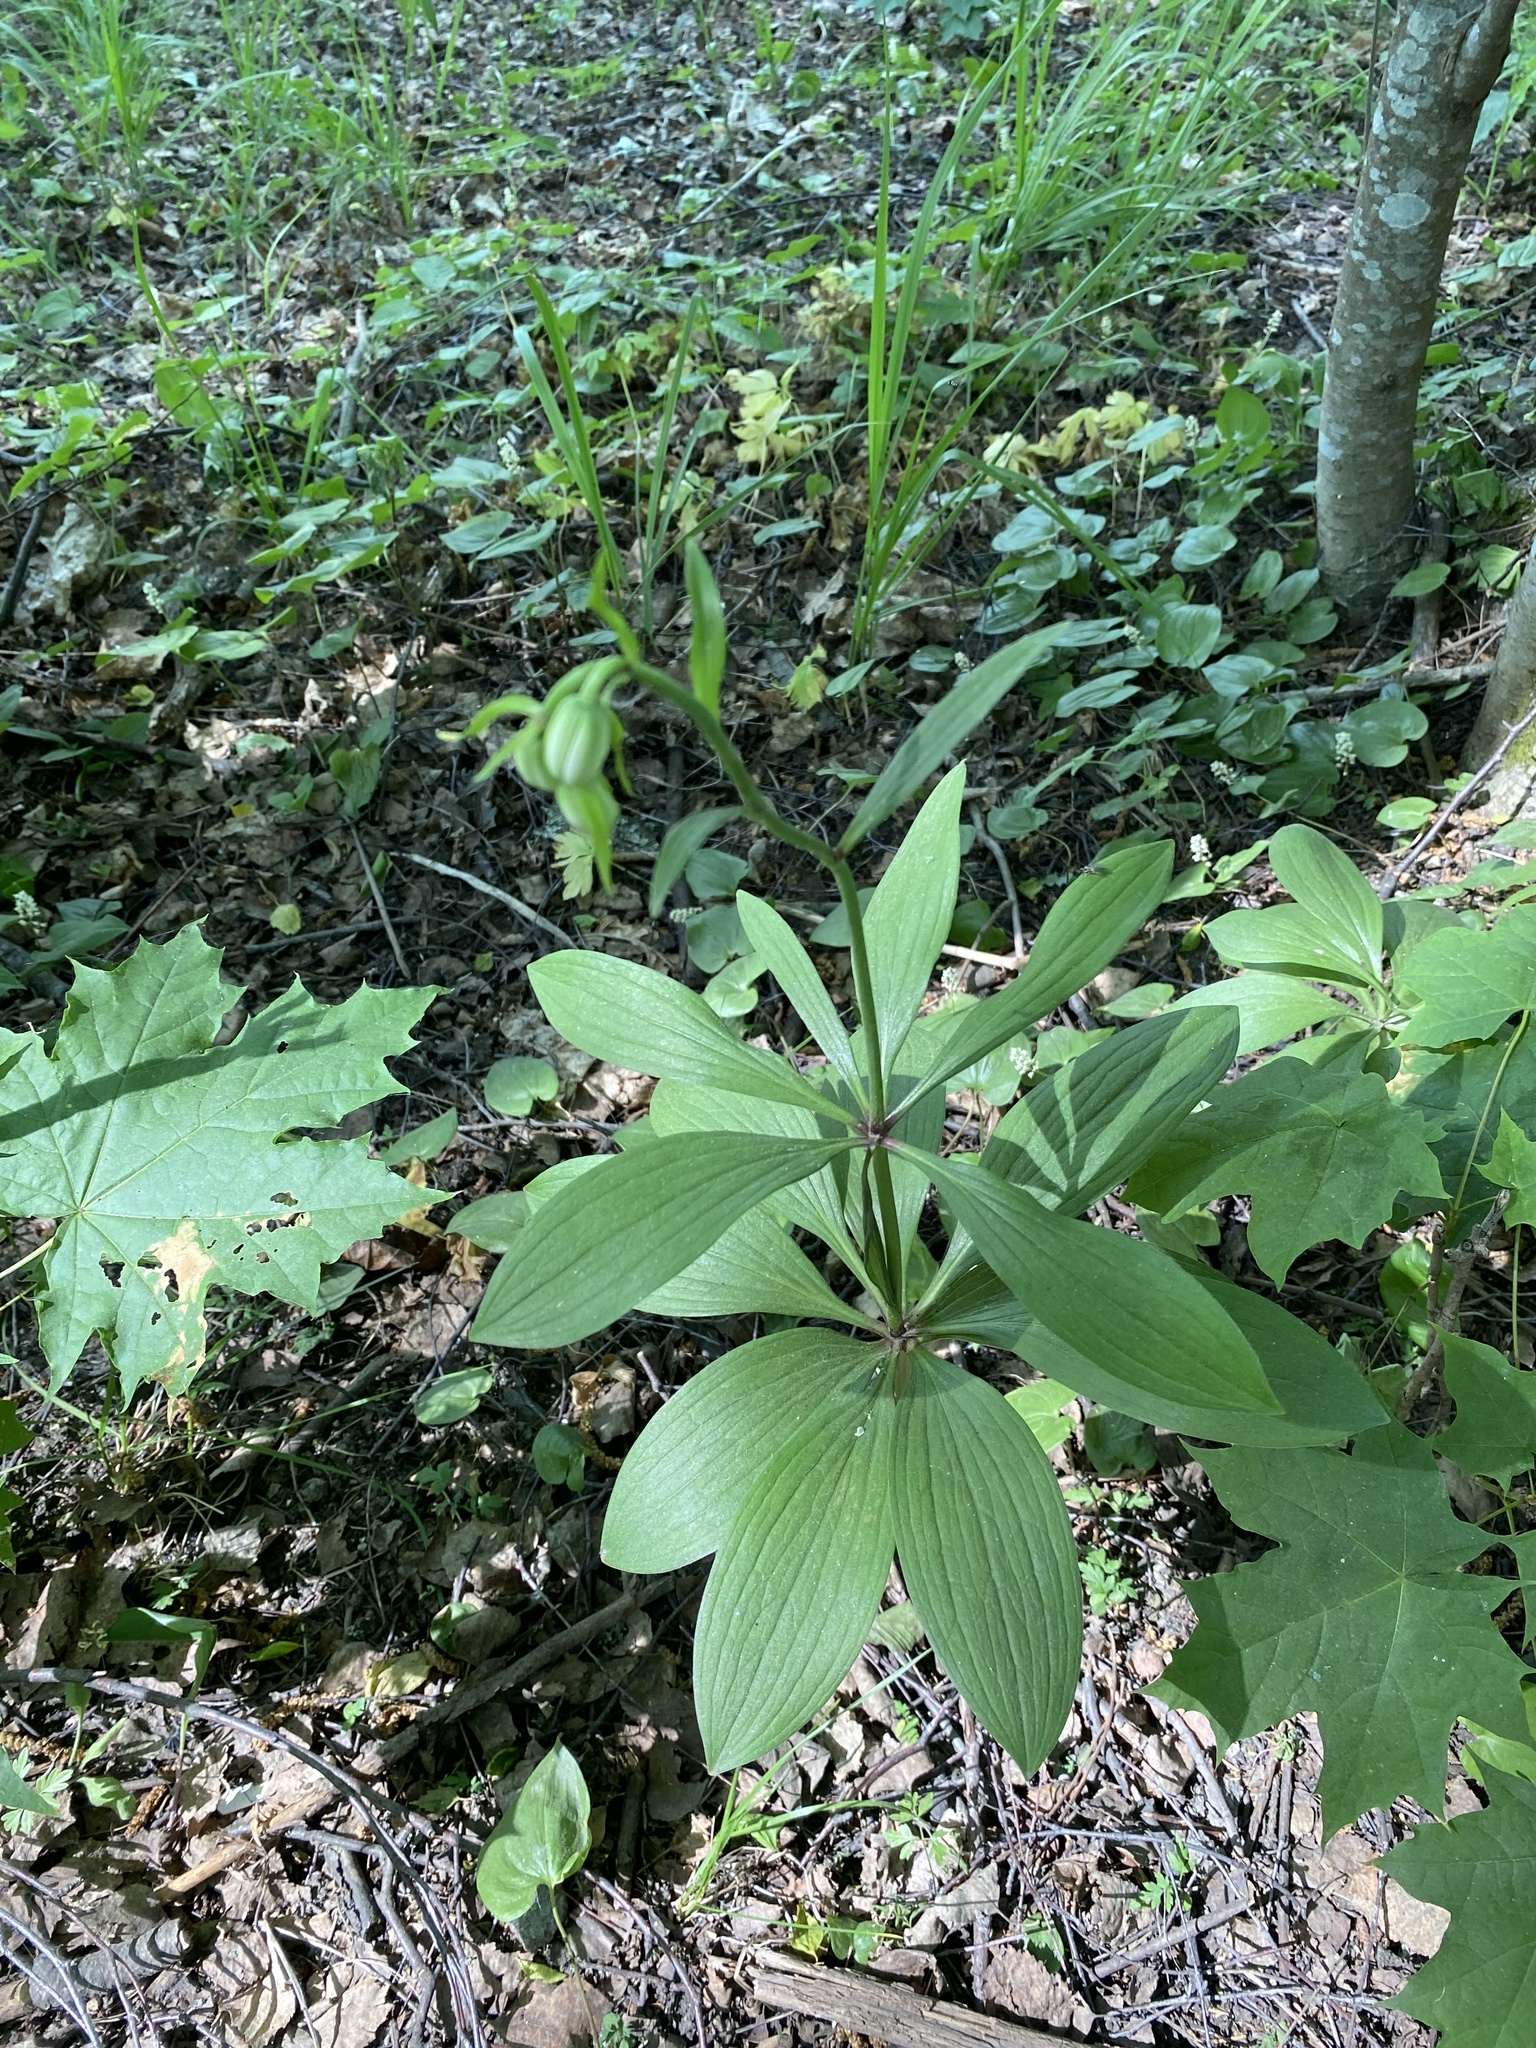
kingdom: Plantae
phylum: Tracheophyta
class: Liliopsida
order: Liliales
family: Liliaceae
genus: Lilium
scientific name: Lilium martagon
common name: Martagon lily
